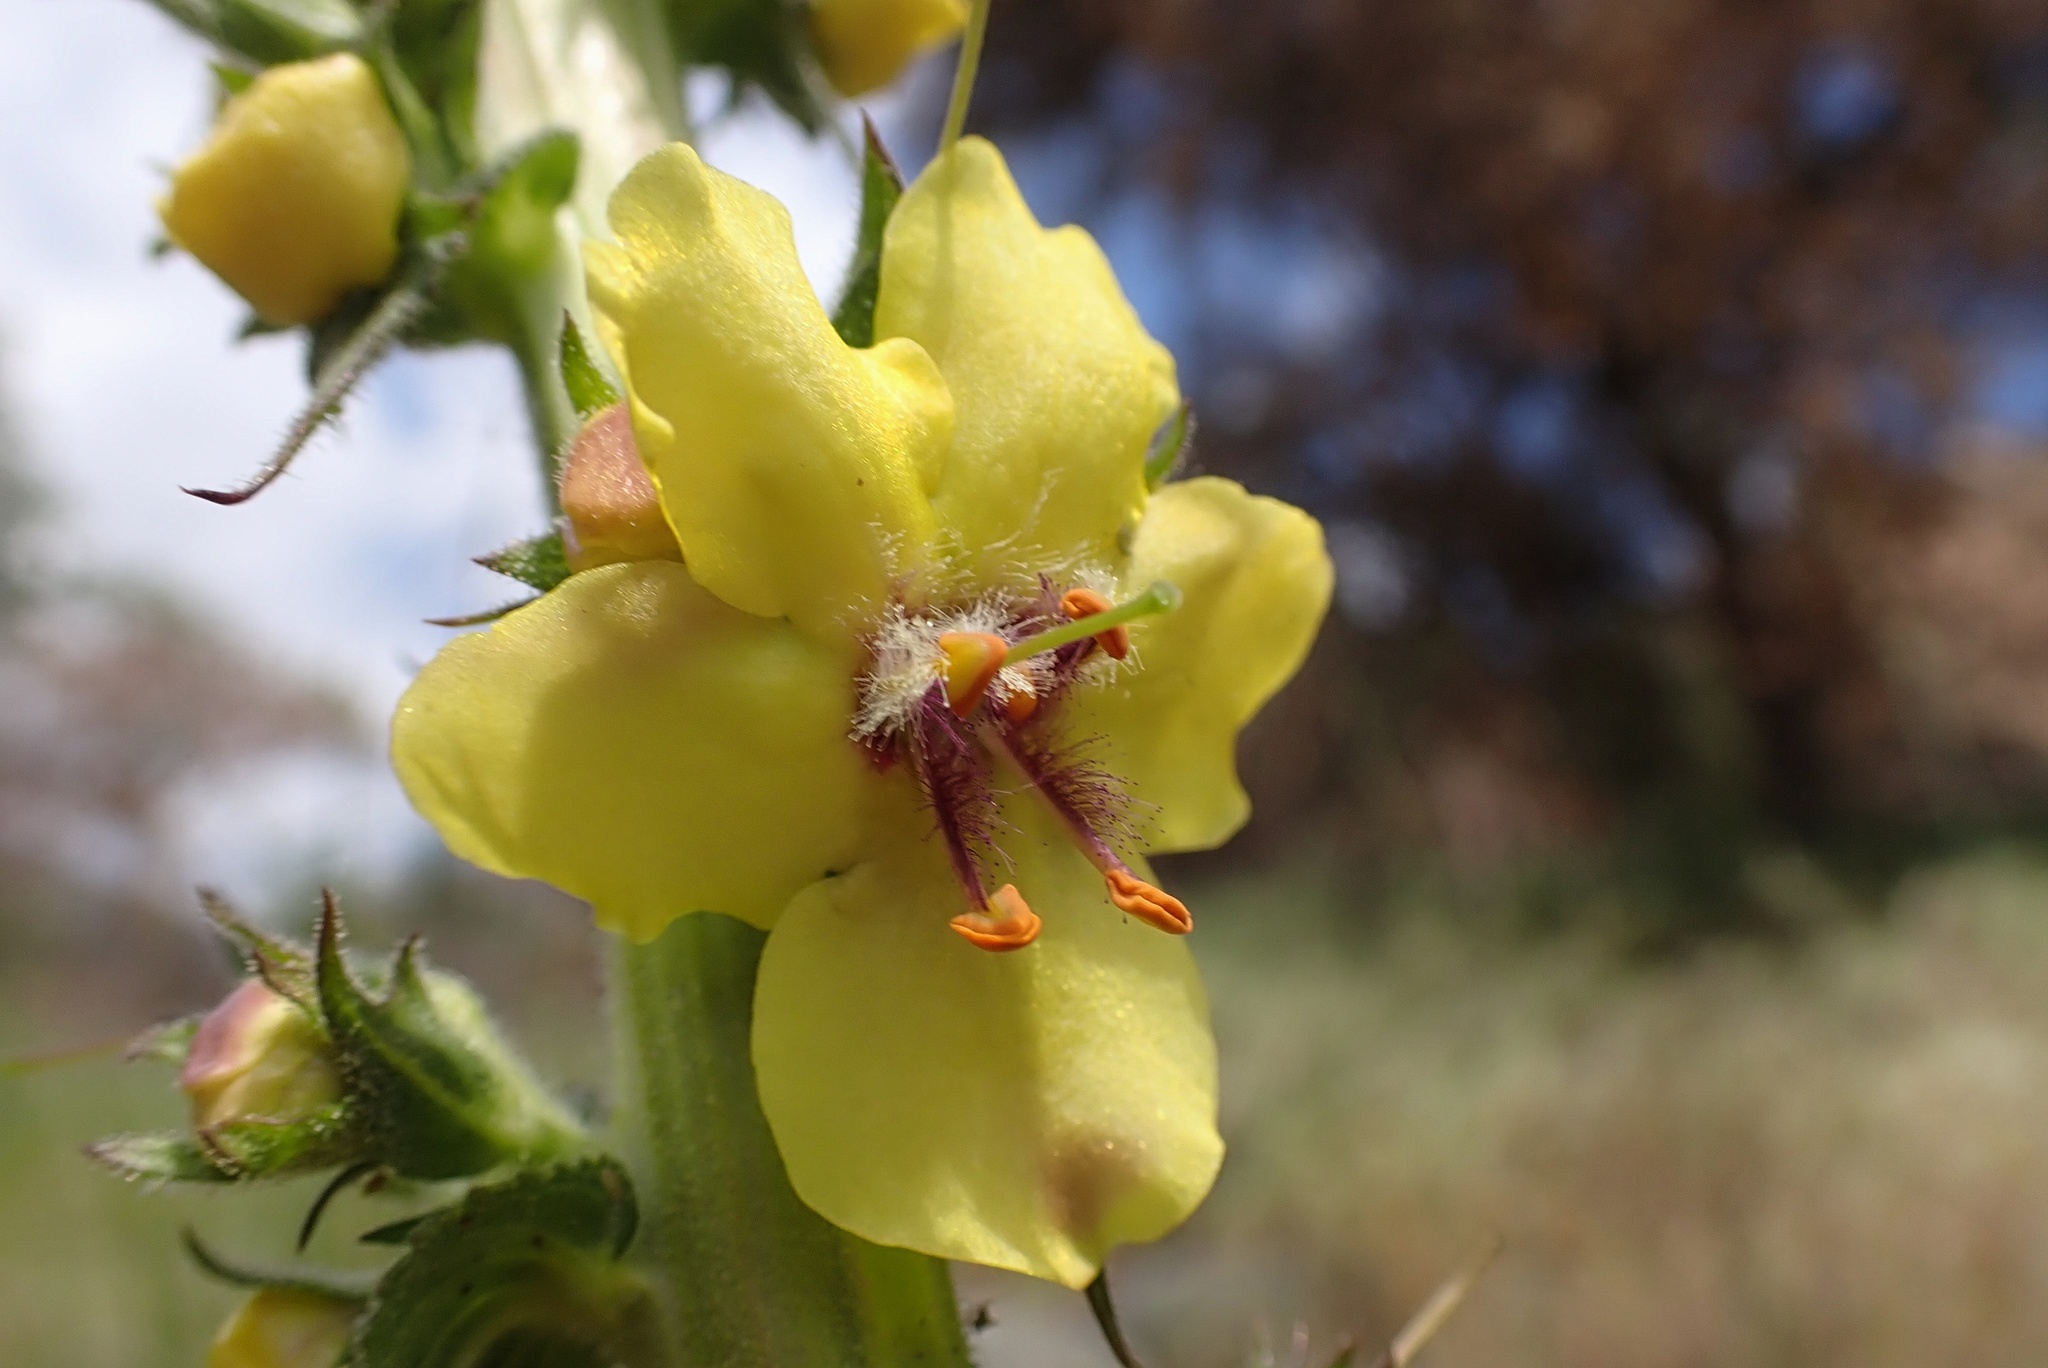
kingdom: Plantae
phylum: Tracheophyta
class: Magnoliopsida
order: Lamiales
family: Scrophulariaceae
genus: Verbascum
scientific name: Verbascum virgatum
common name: Twiggy mullein
